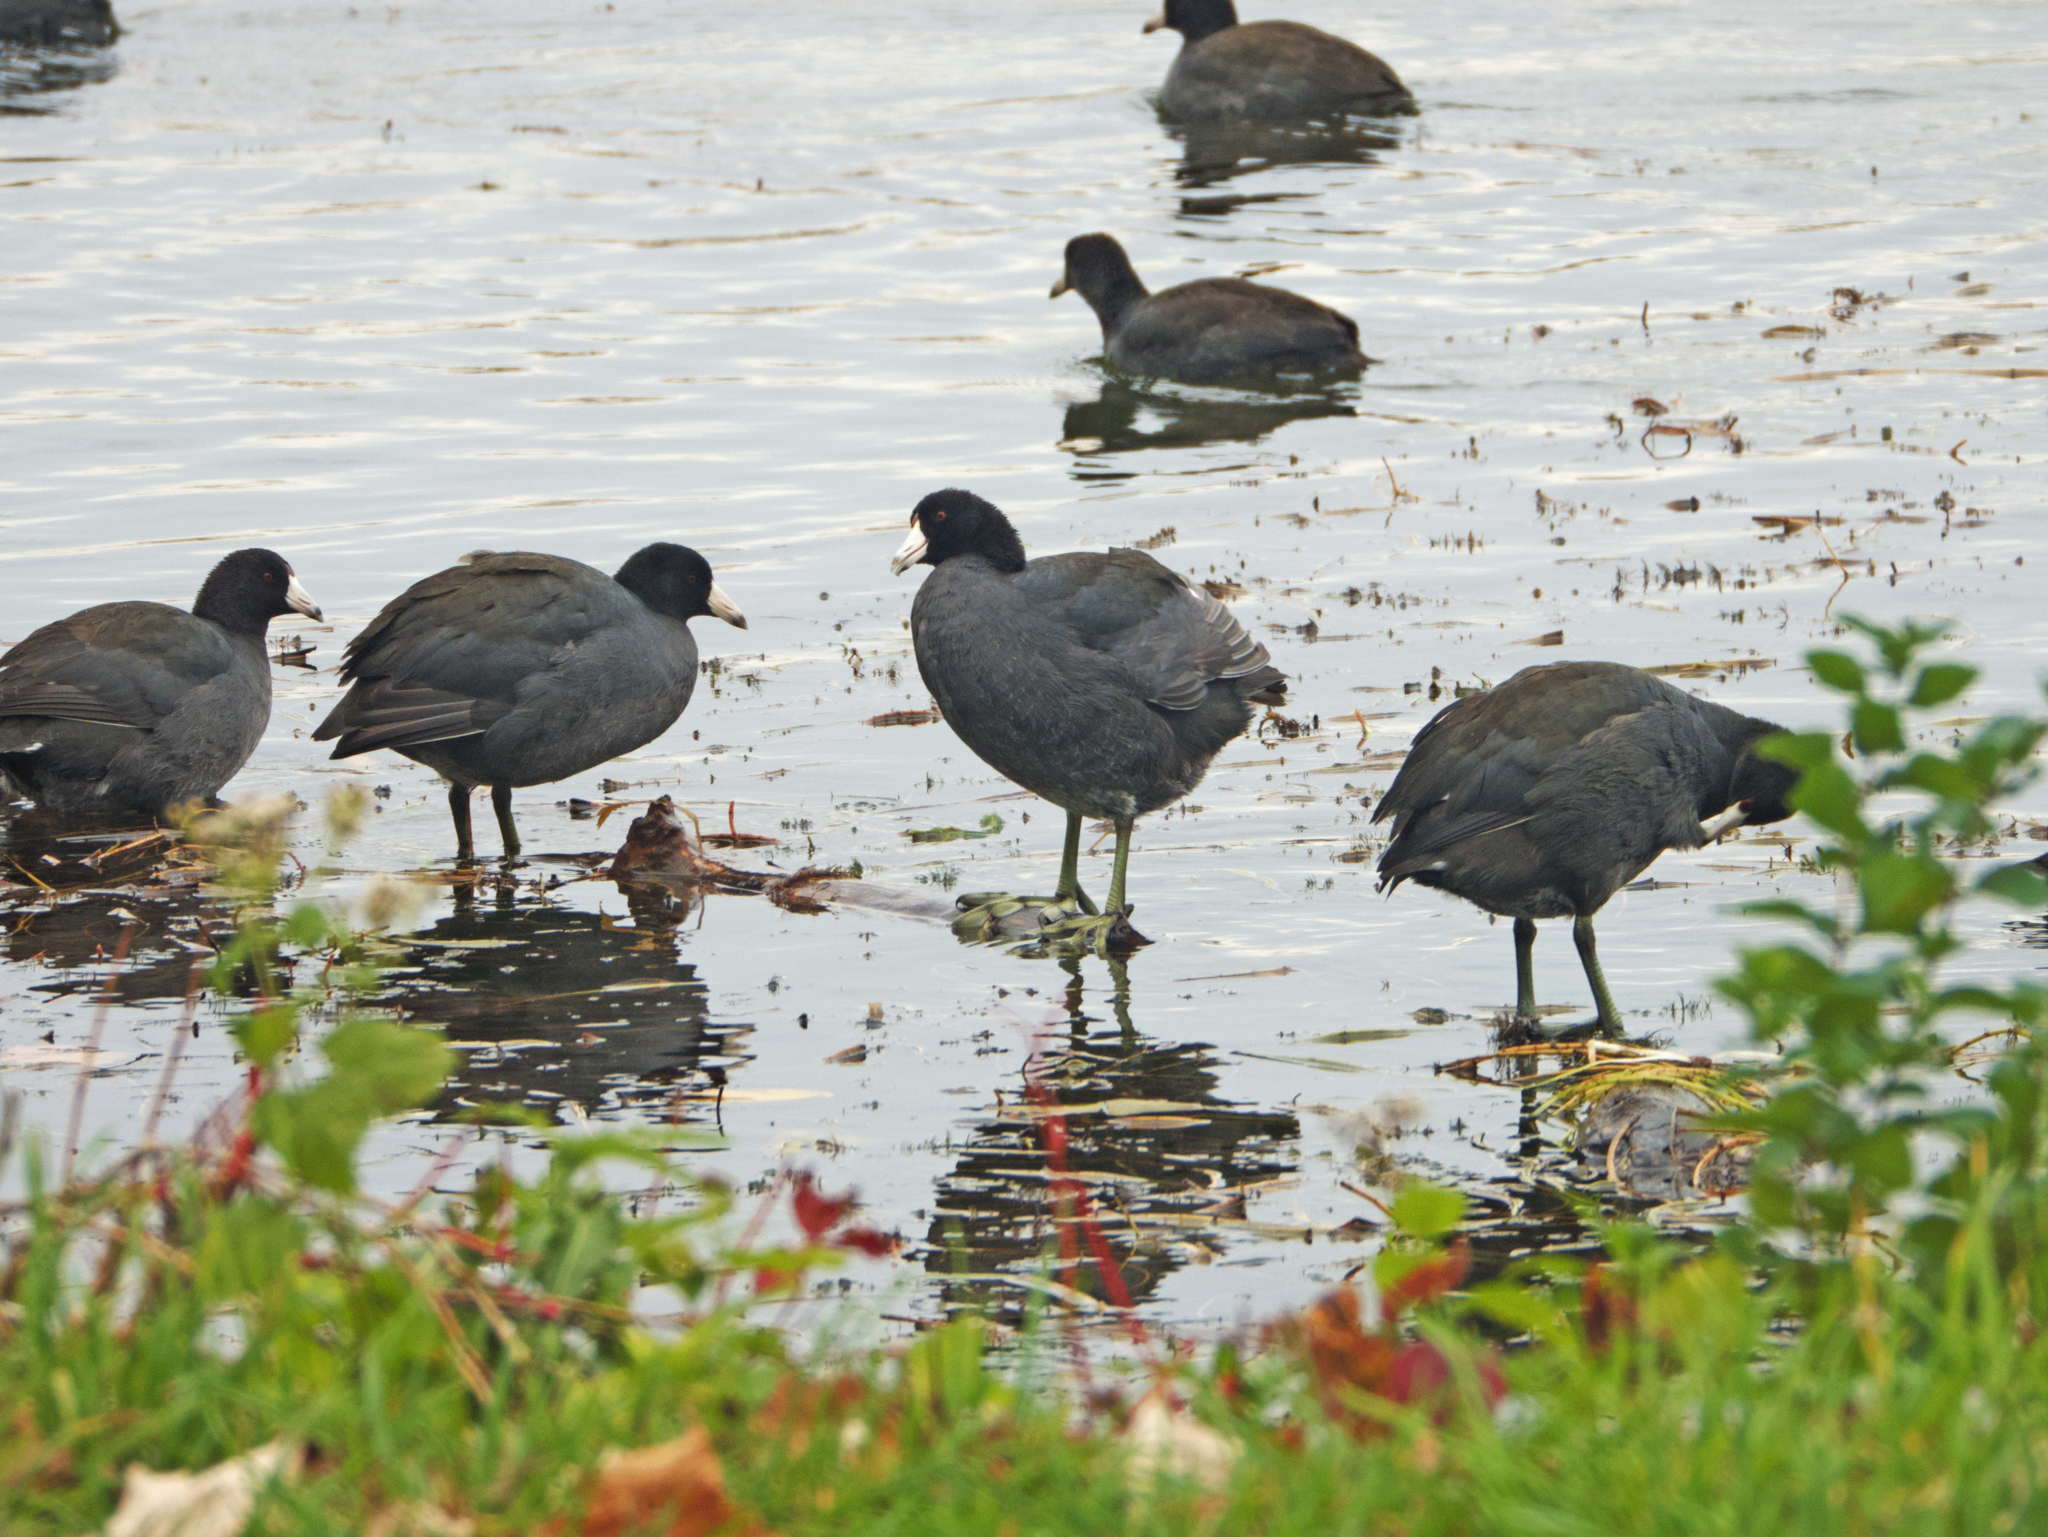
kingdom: Animalia
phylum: Chordata
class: Aves
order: Gruiformes
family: Rallidae
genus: Fulica
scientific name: Fulica americana
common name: American coot
